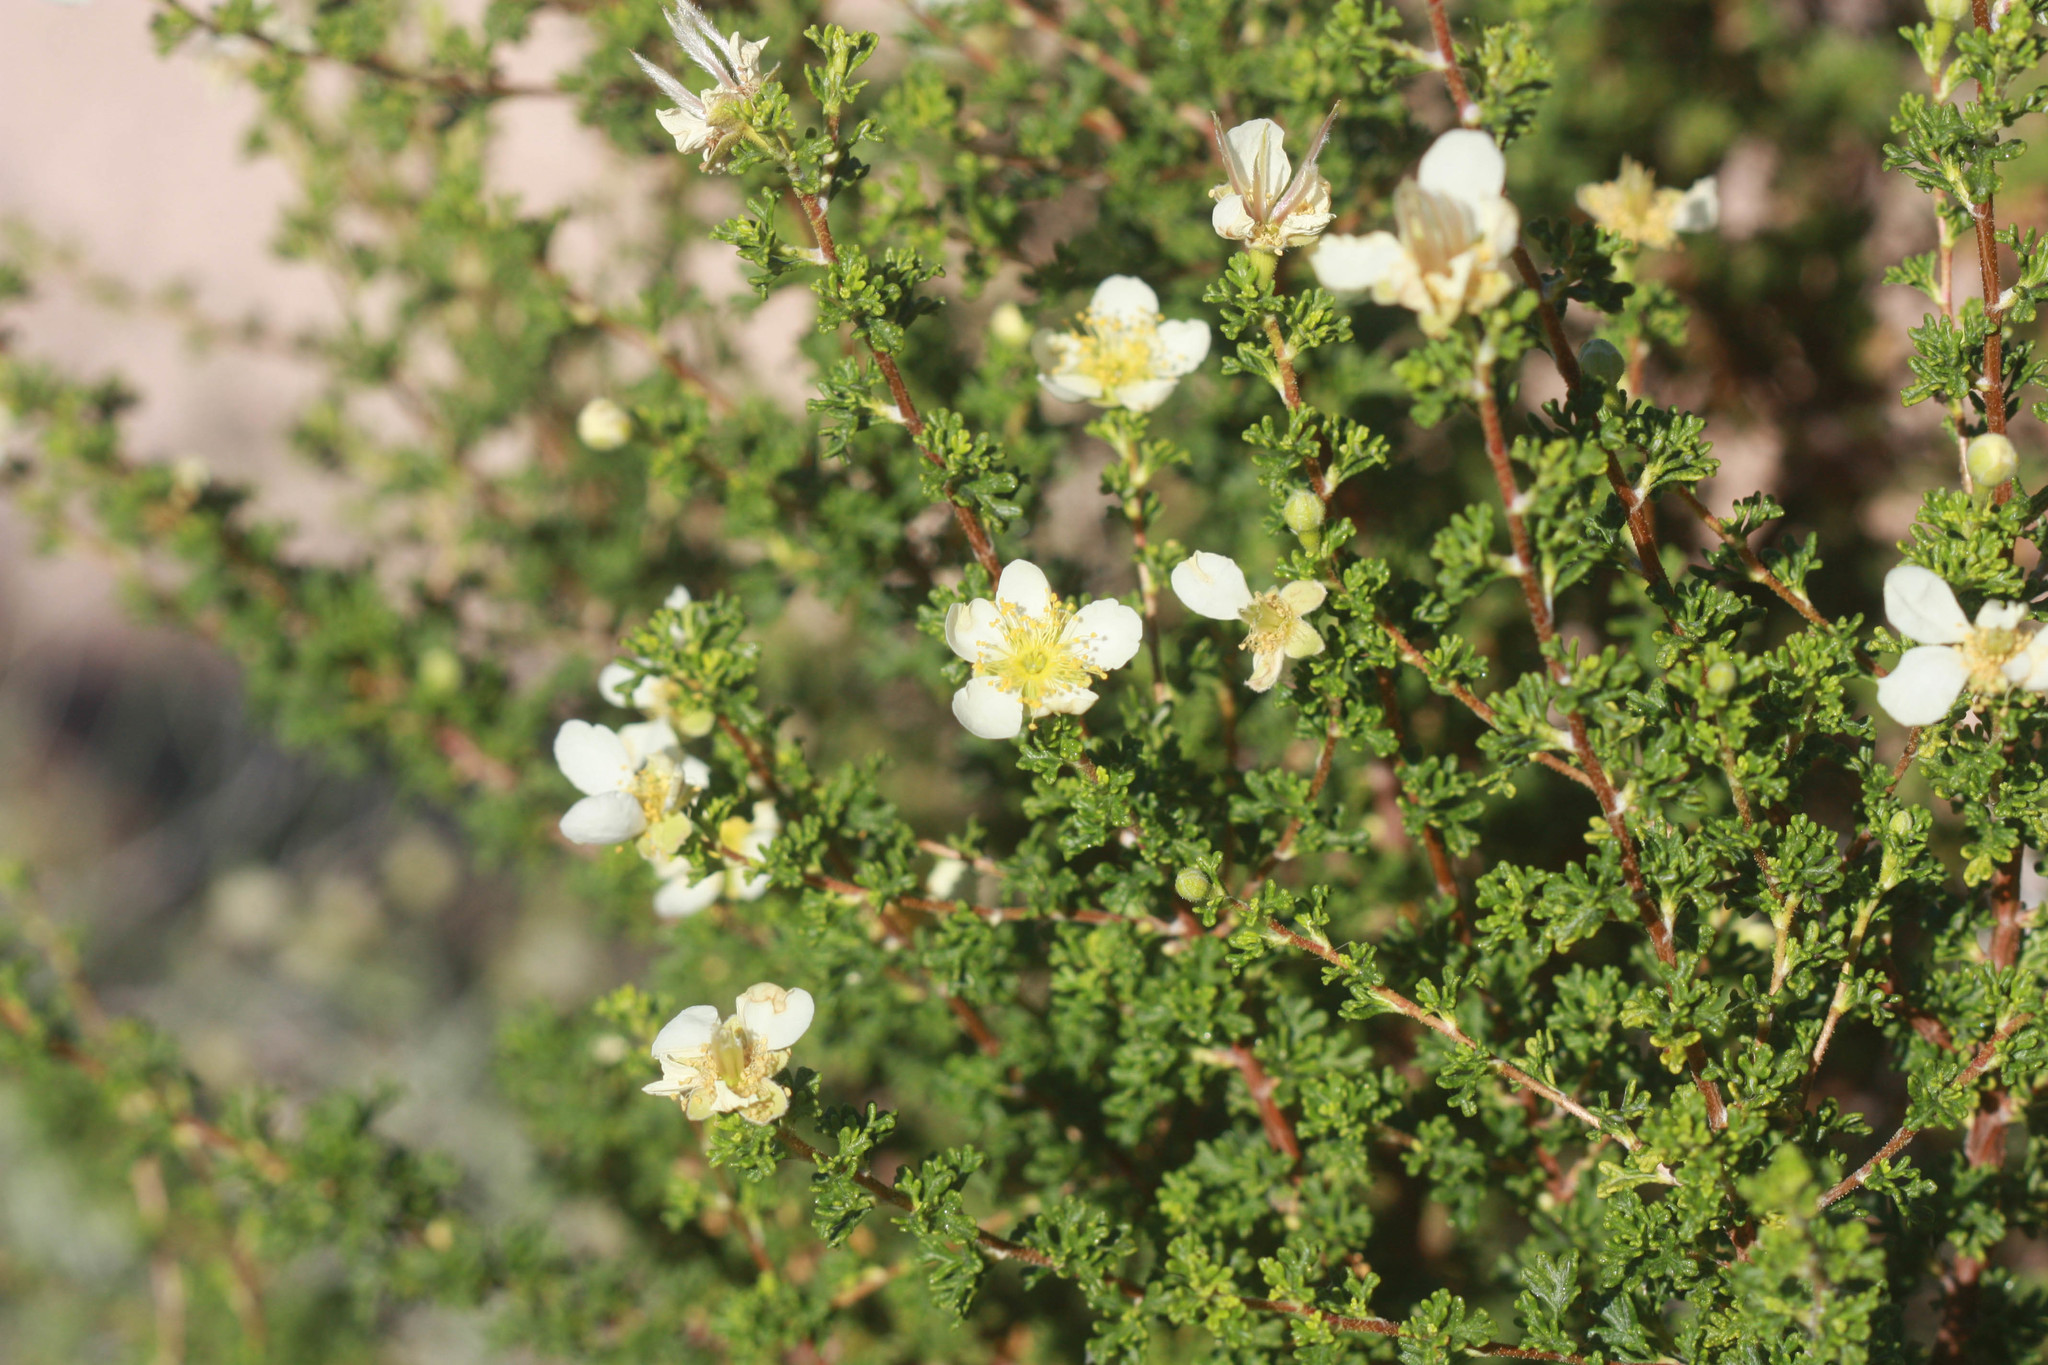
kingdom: Plantae
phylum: Tracheophyta
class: Magnoliopsida
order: Rosales
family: Rosaceae
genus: Purshia
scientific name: Purshia stansburiana
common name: Stansbury's cliffrose
